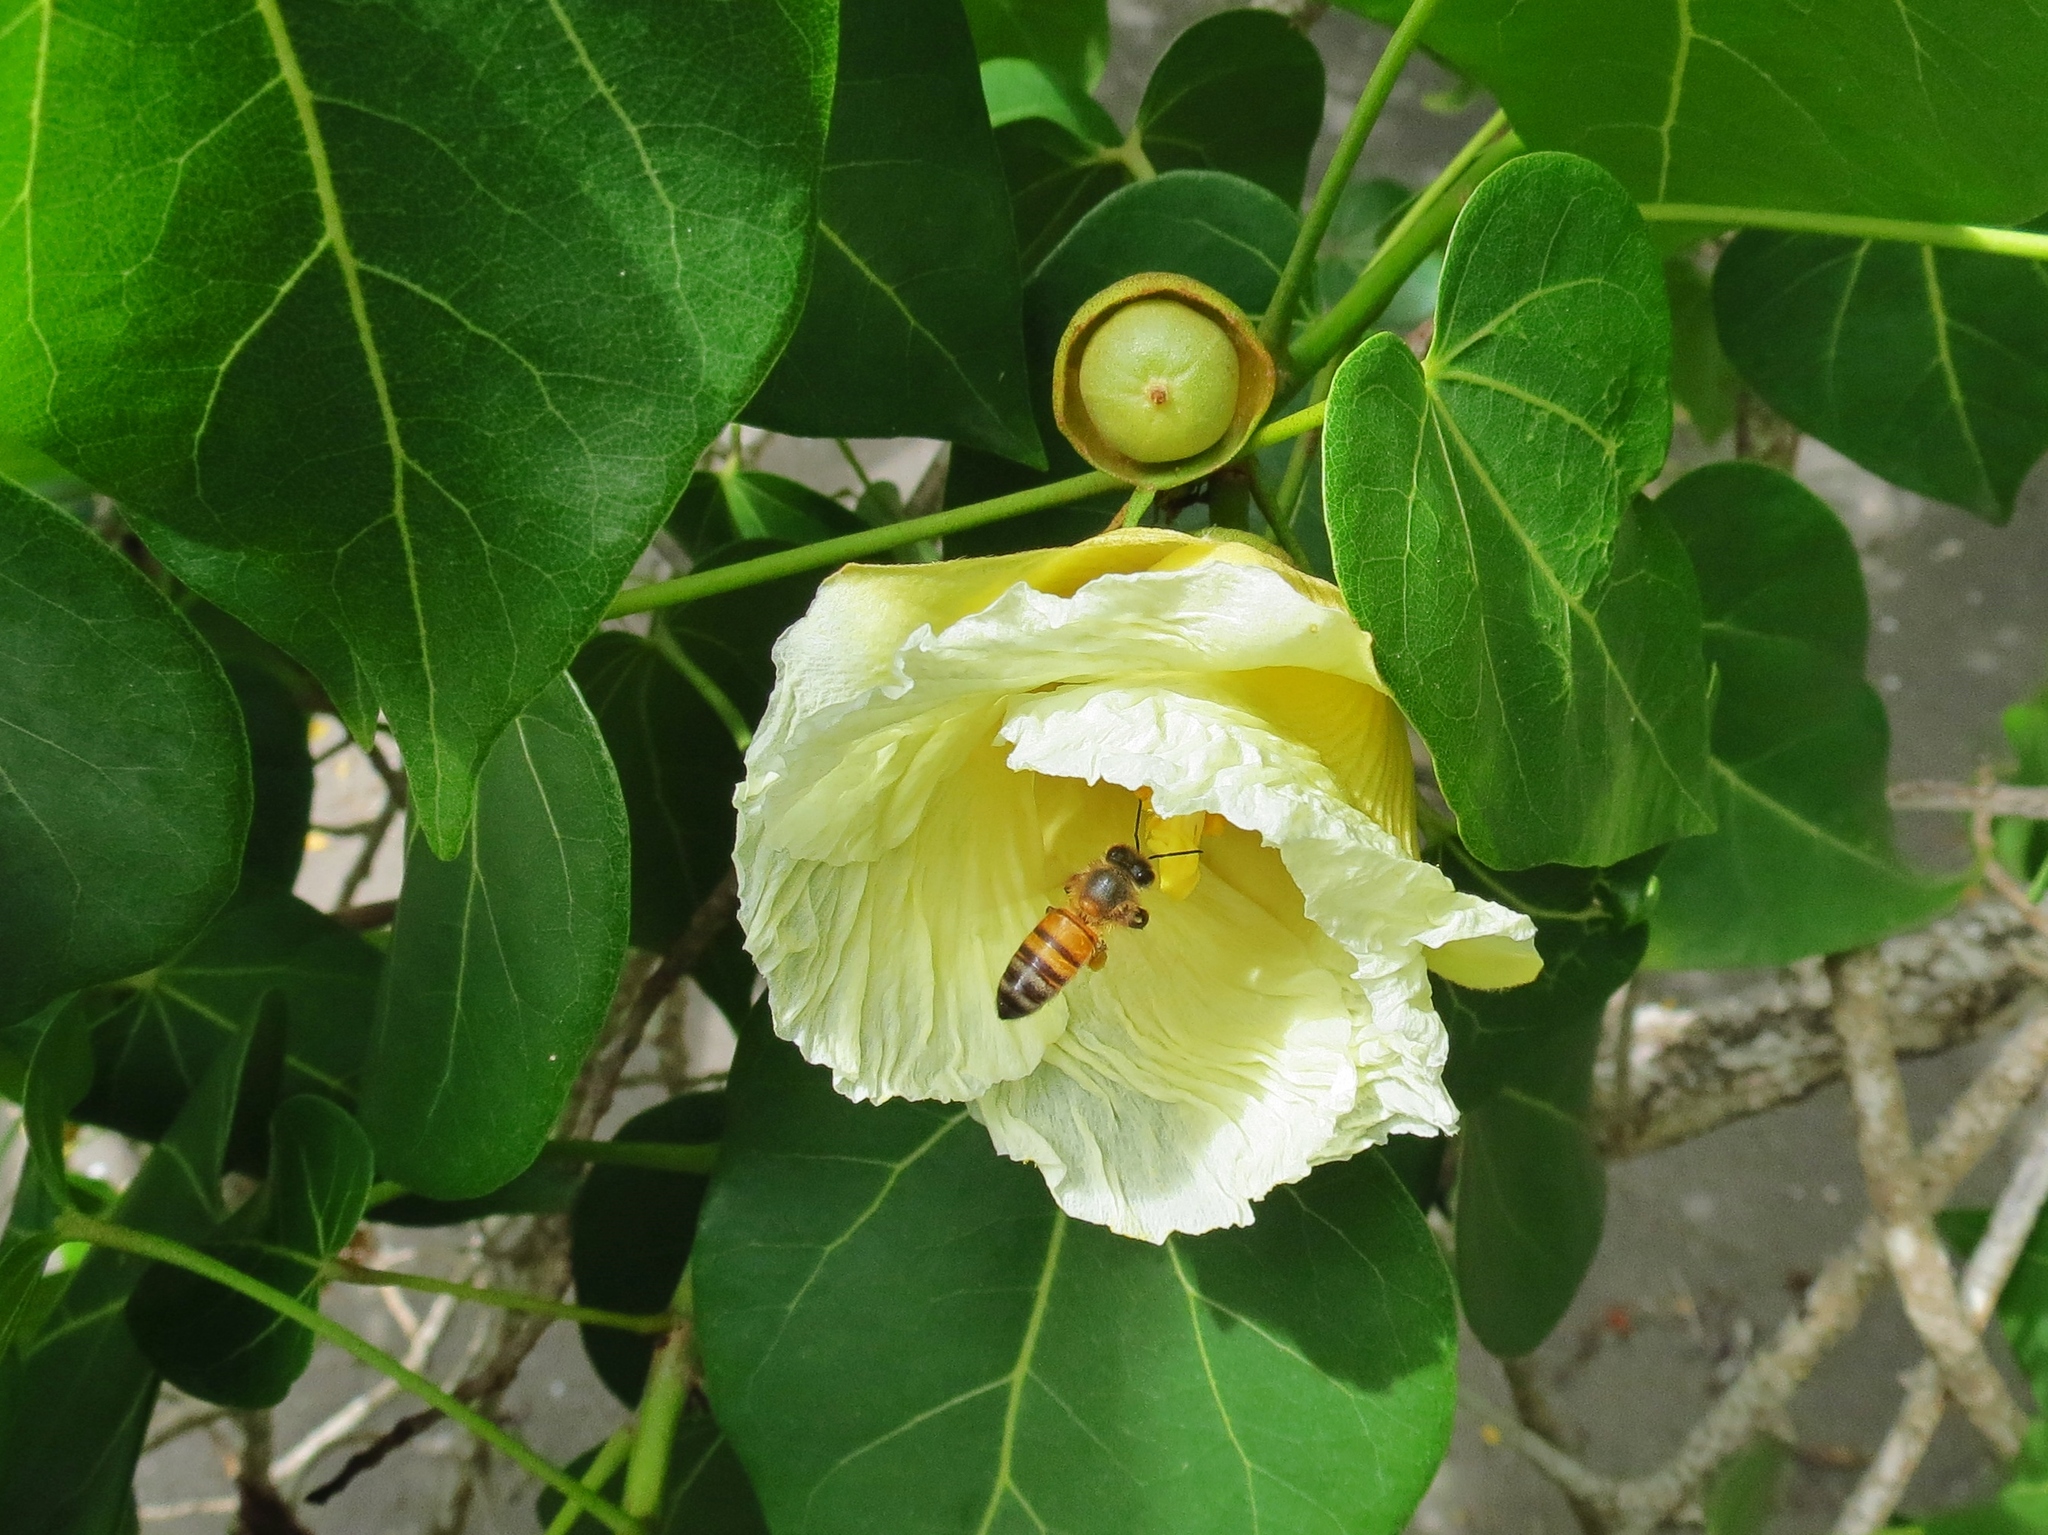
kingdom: Plantae
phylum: Tracheophyta
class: Magnoliopsida
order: Malvales
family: Malvaceae
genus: Thespesia
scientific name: Thespesia populnea
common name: Seaside mahoe
